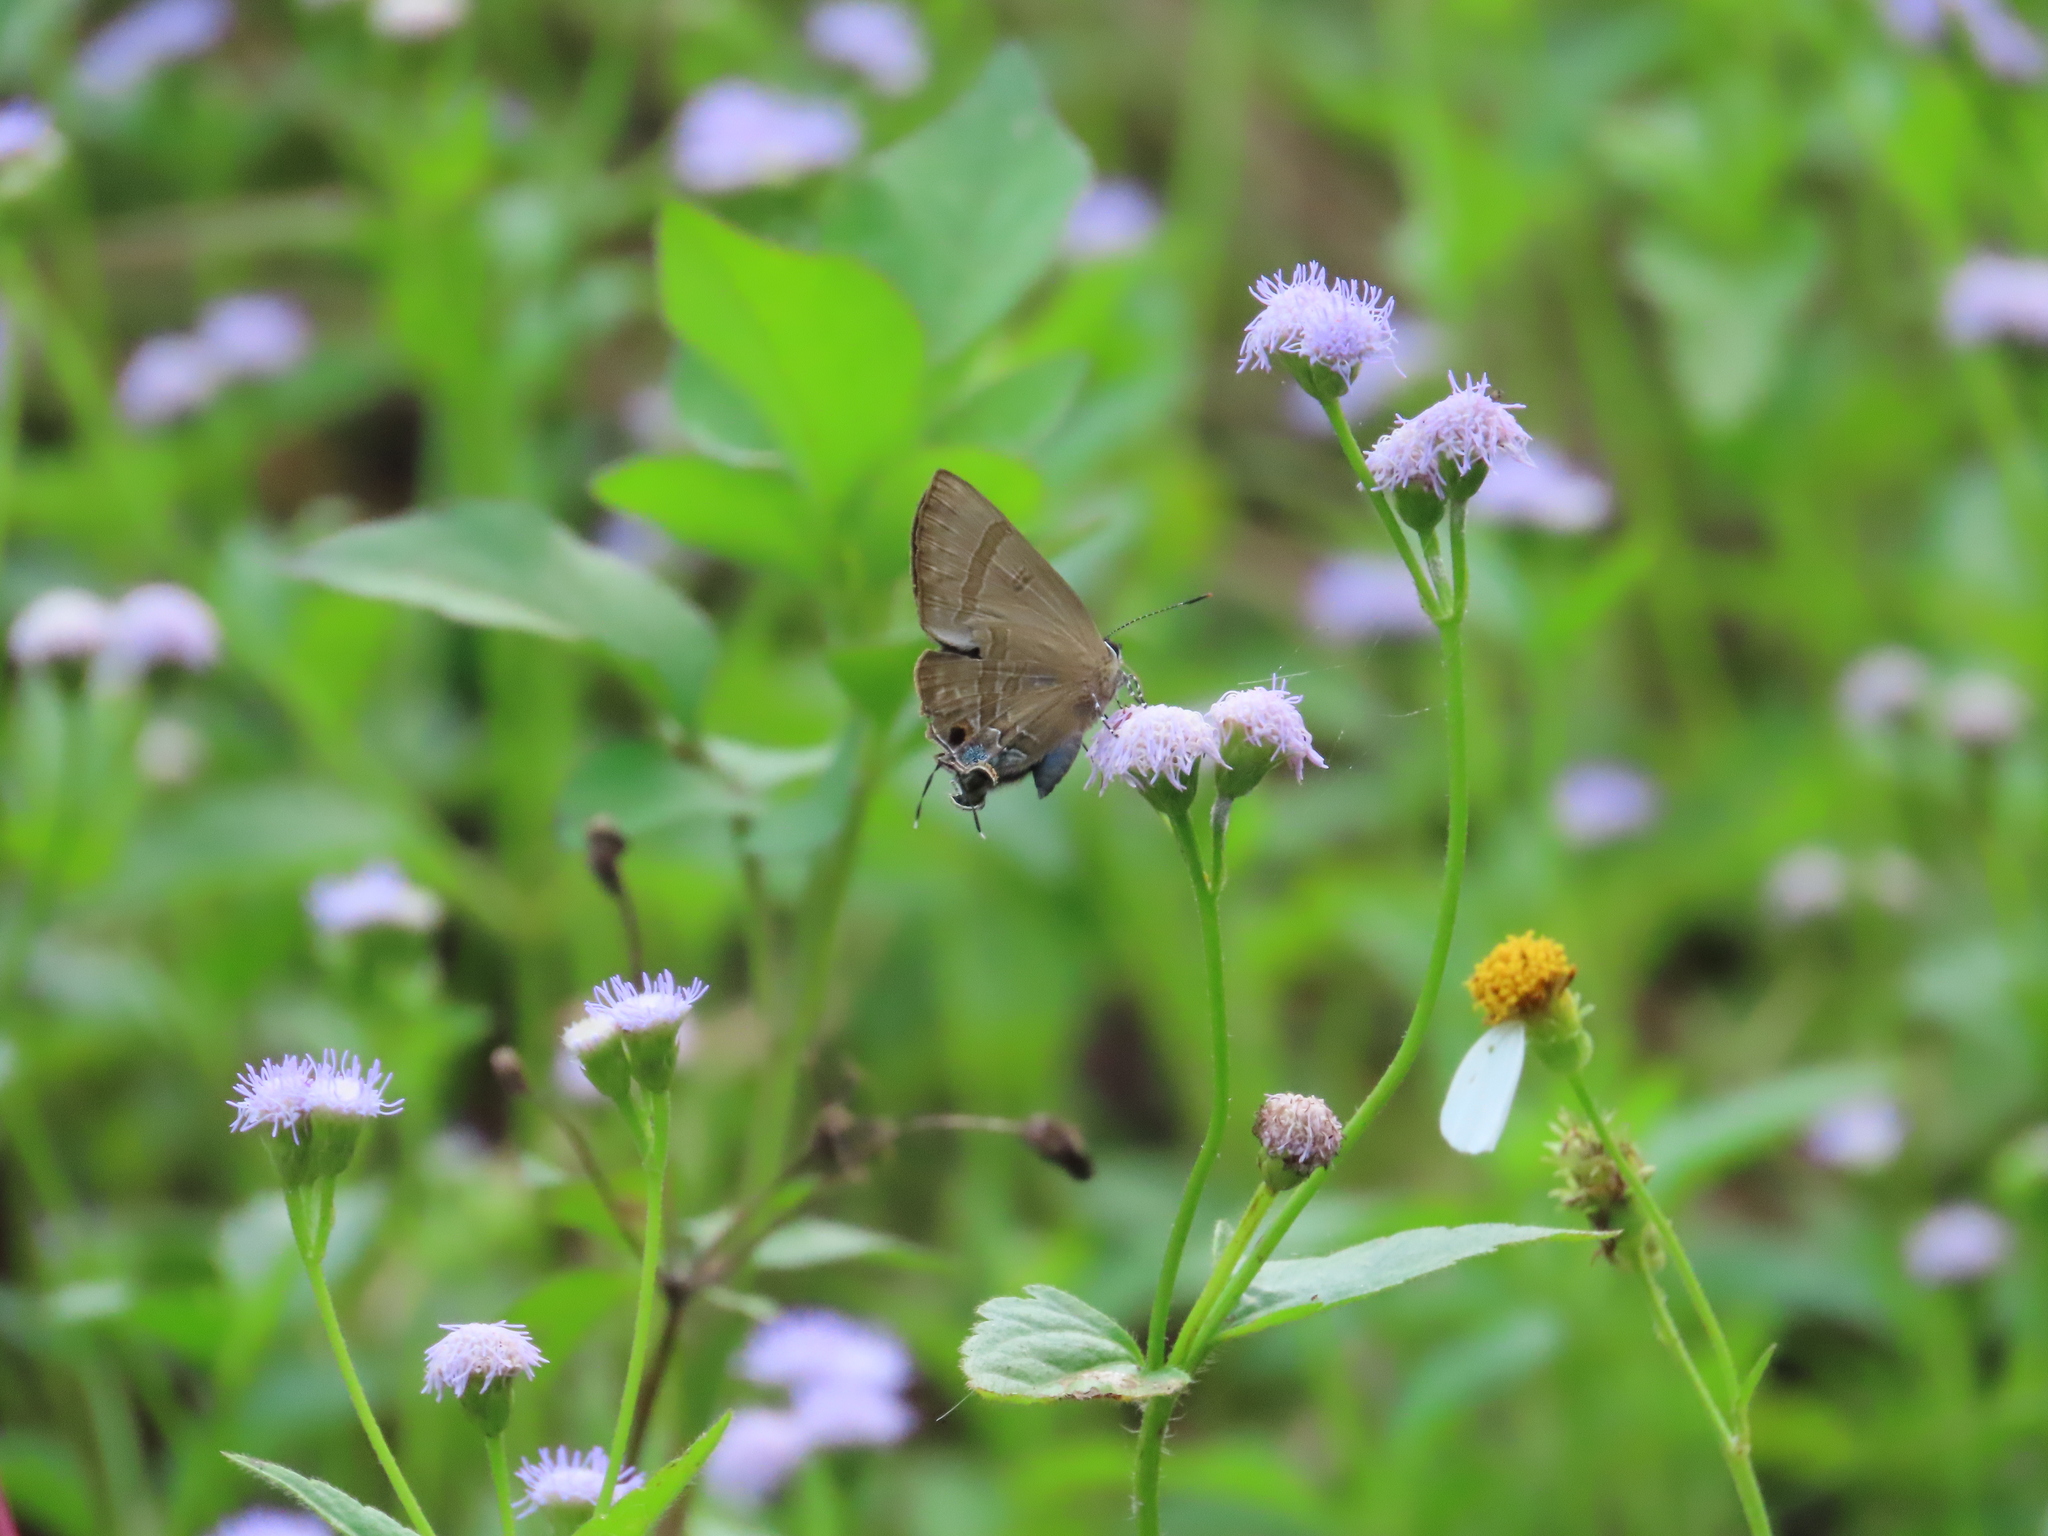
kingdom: Animalia
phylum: Arthropoda
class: Insecta
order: Lepidoptera
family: Lycaenidae
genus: Rapala
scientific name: Rapala varuna
